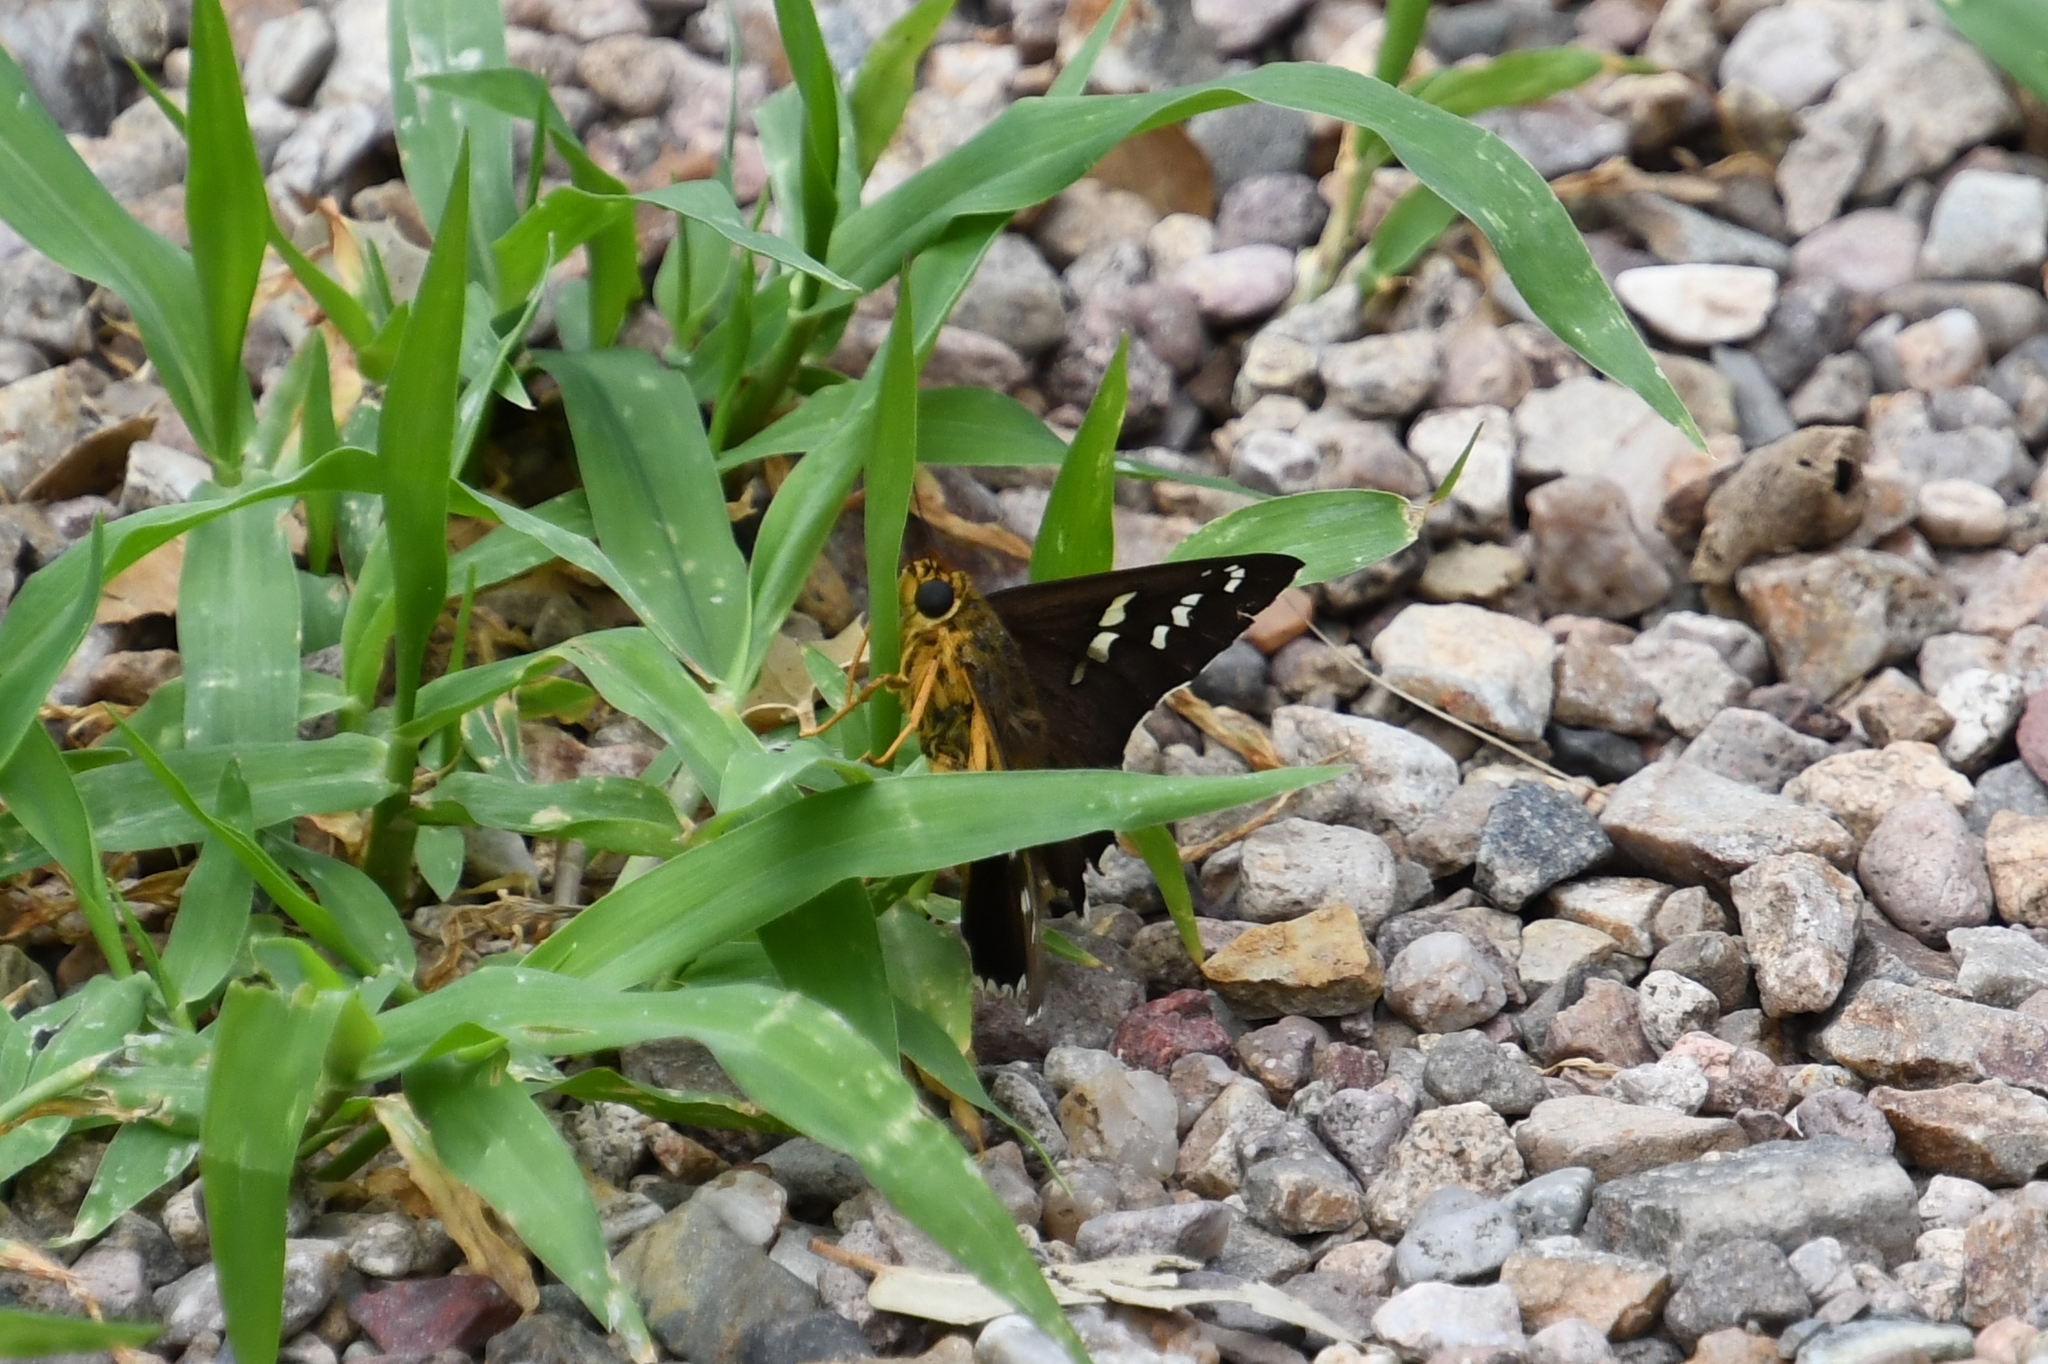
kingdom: Animalia
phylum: Arthropoda
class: Insecta
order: Lepidoptera
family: Hesperiidae
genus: Pyrrhopyge
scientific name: Pyrrhopyge araxes
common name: Dull firetip
